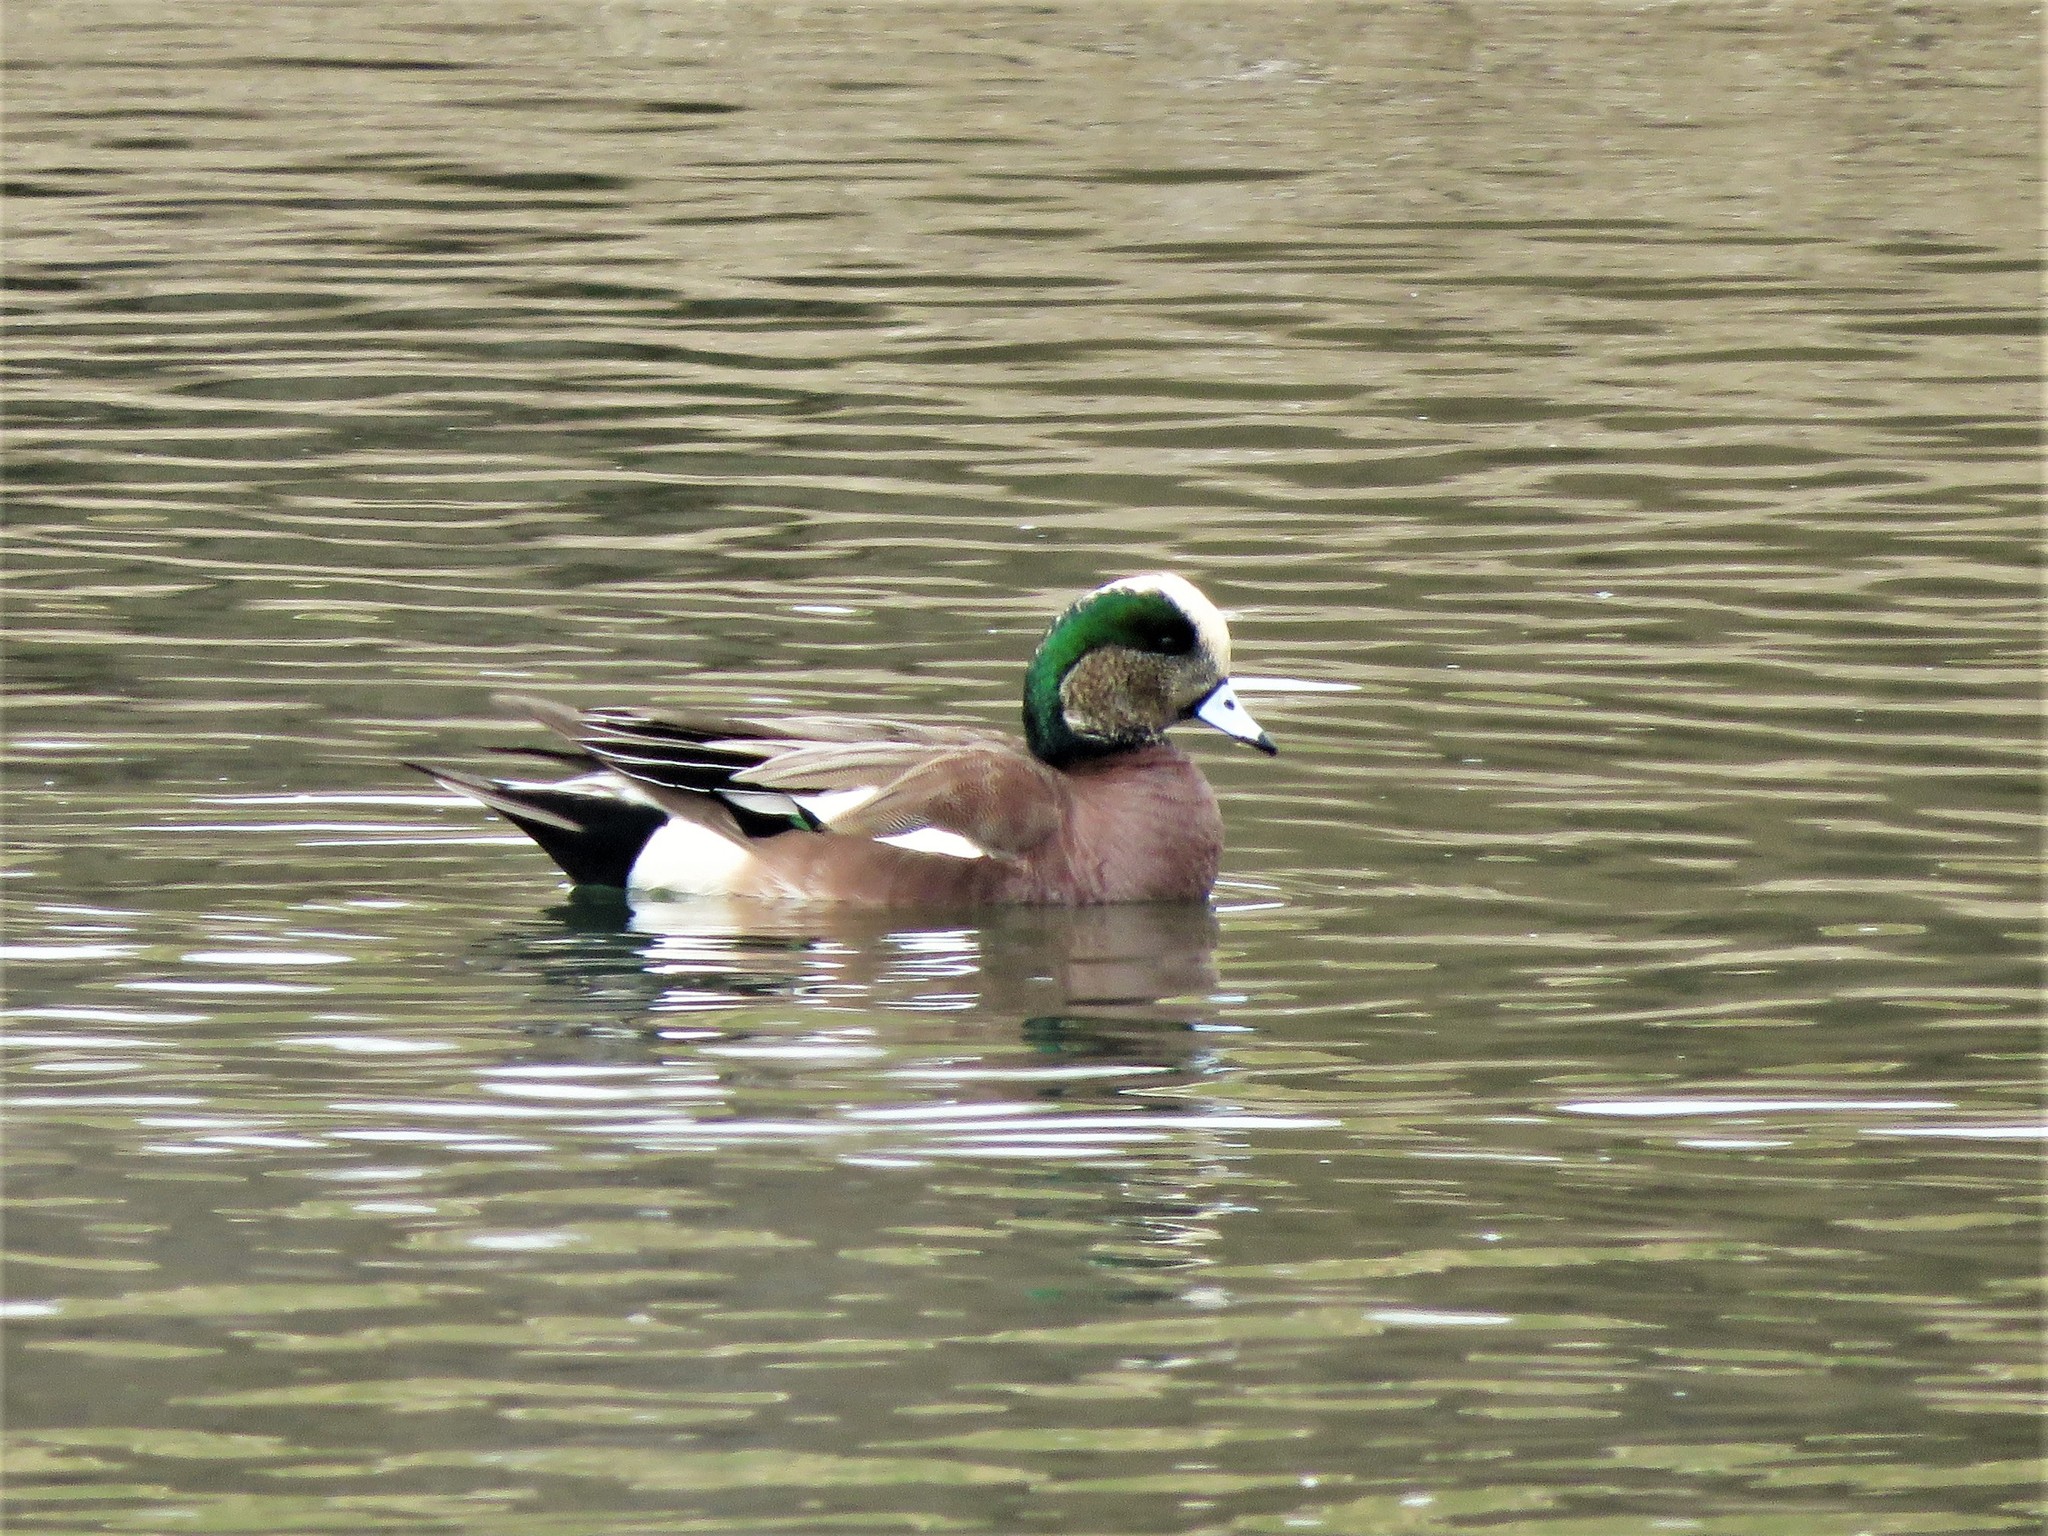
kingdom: Animalia
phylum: Chordata
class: Aves
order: Anseriformes
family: Anatidae
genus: Mareca
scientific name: Mareca americana
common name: American wigeon
